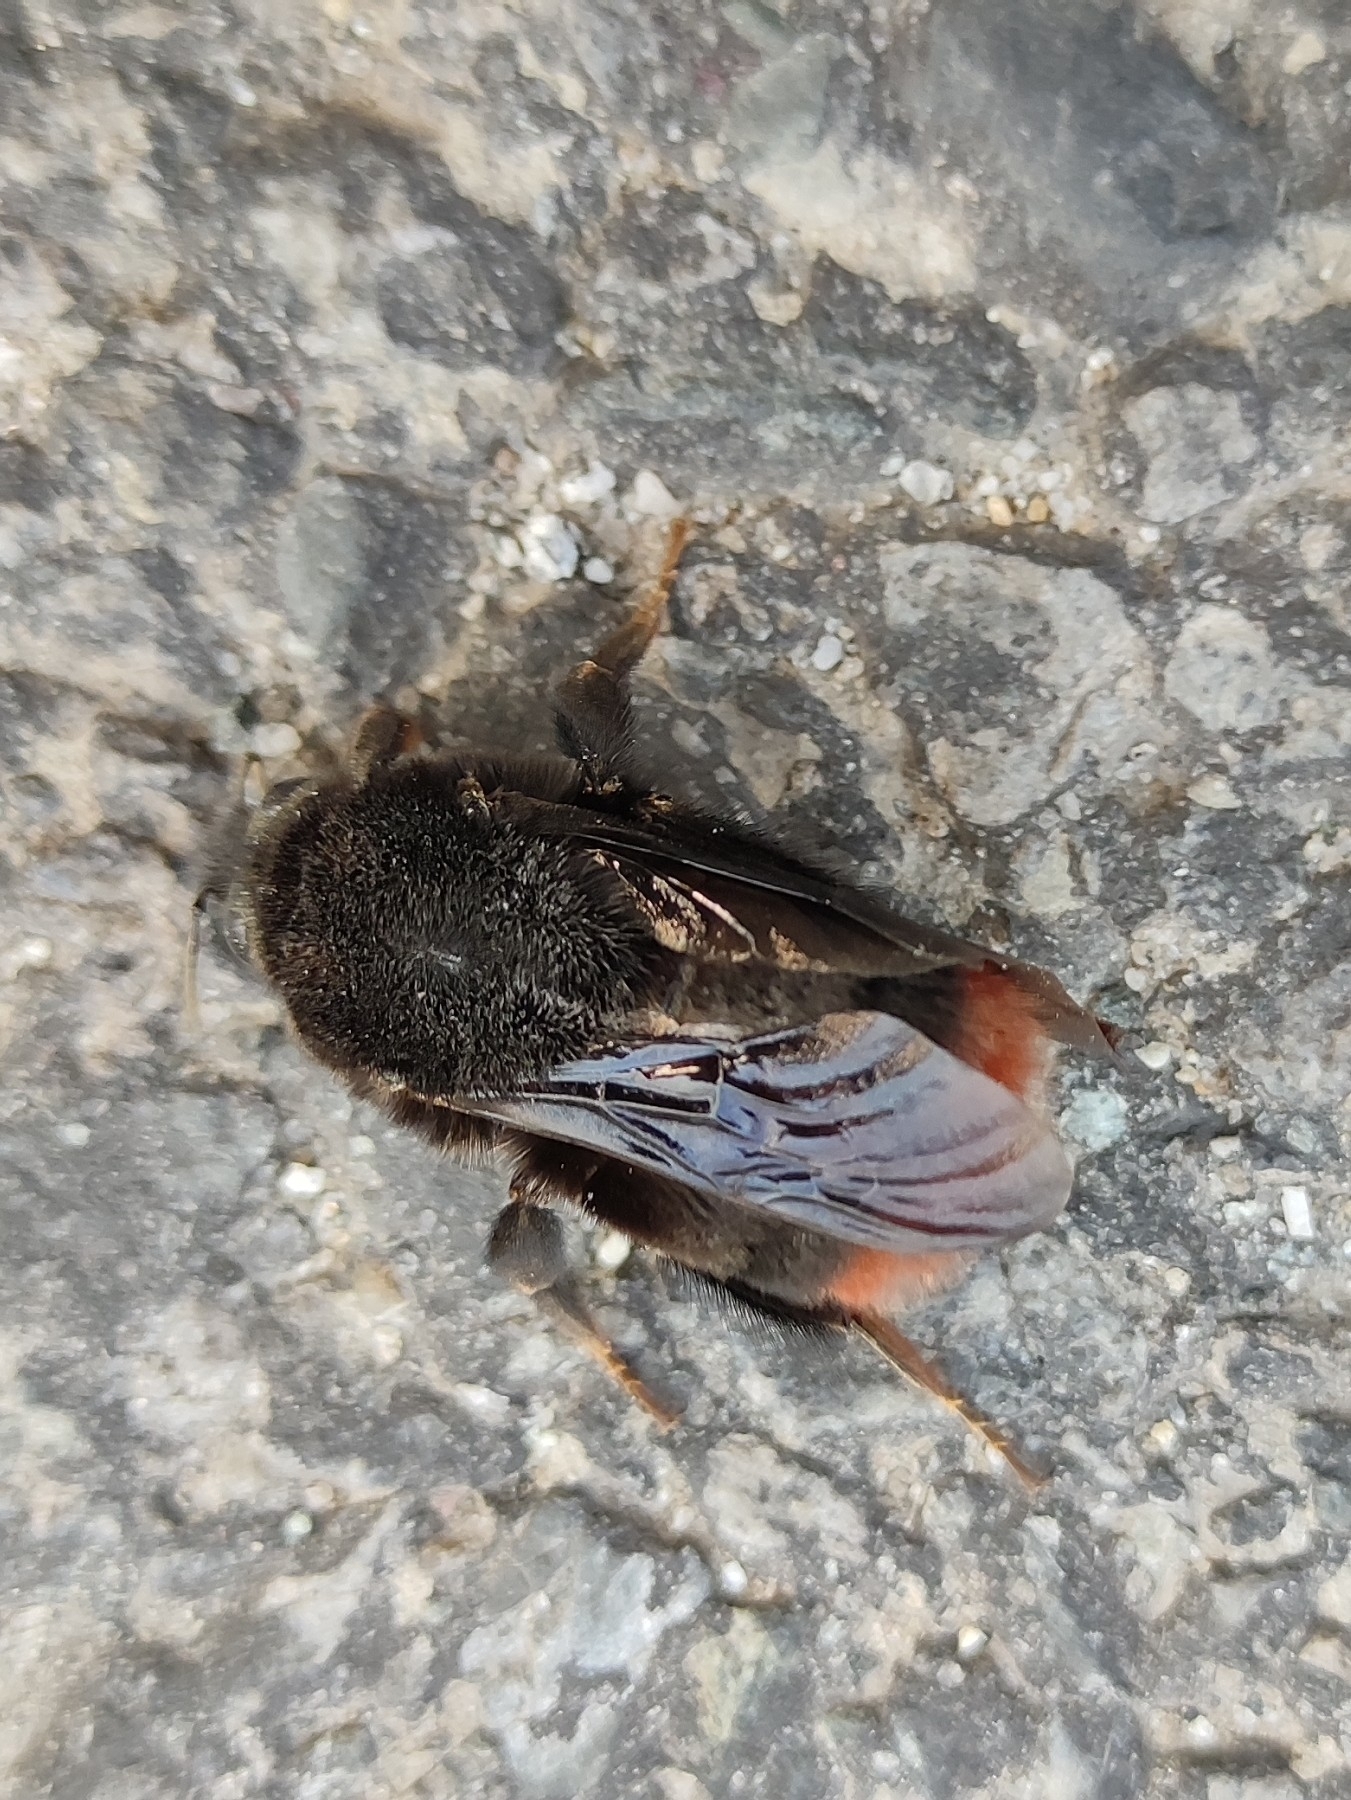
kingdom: Animalia
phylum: Arthropoda
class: Insecta
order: Hymenoptera
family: Apidae
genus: Bombus
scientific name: Bombus simillimus
